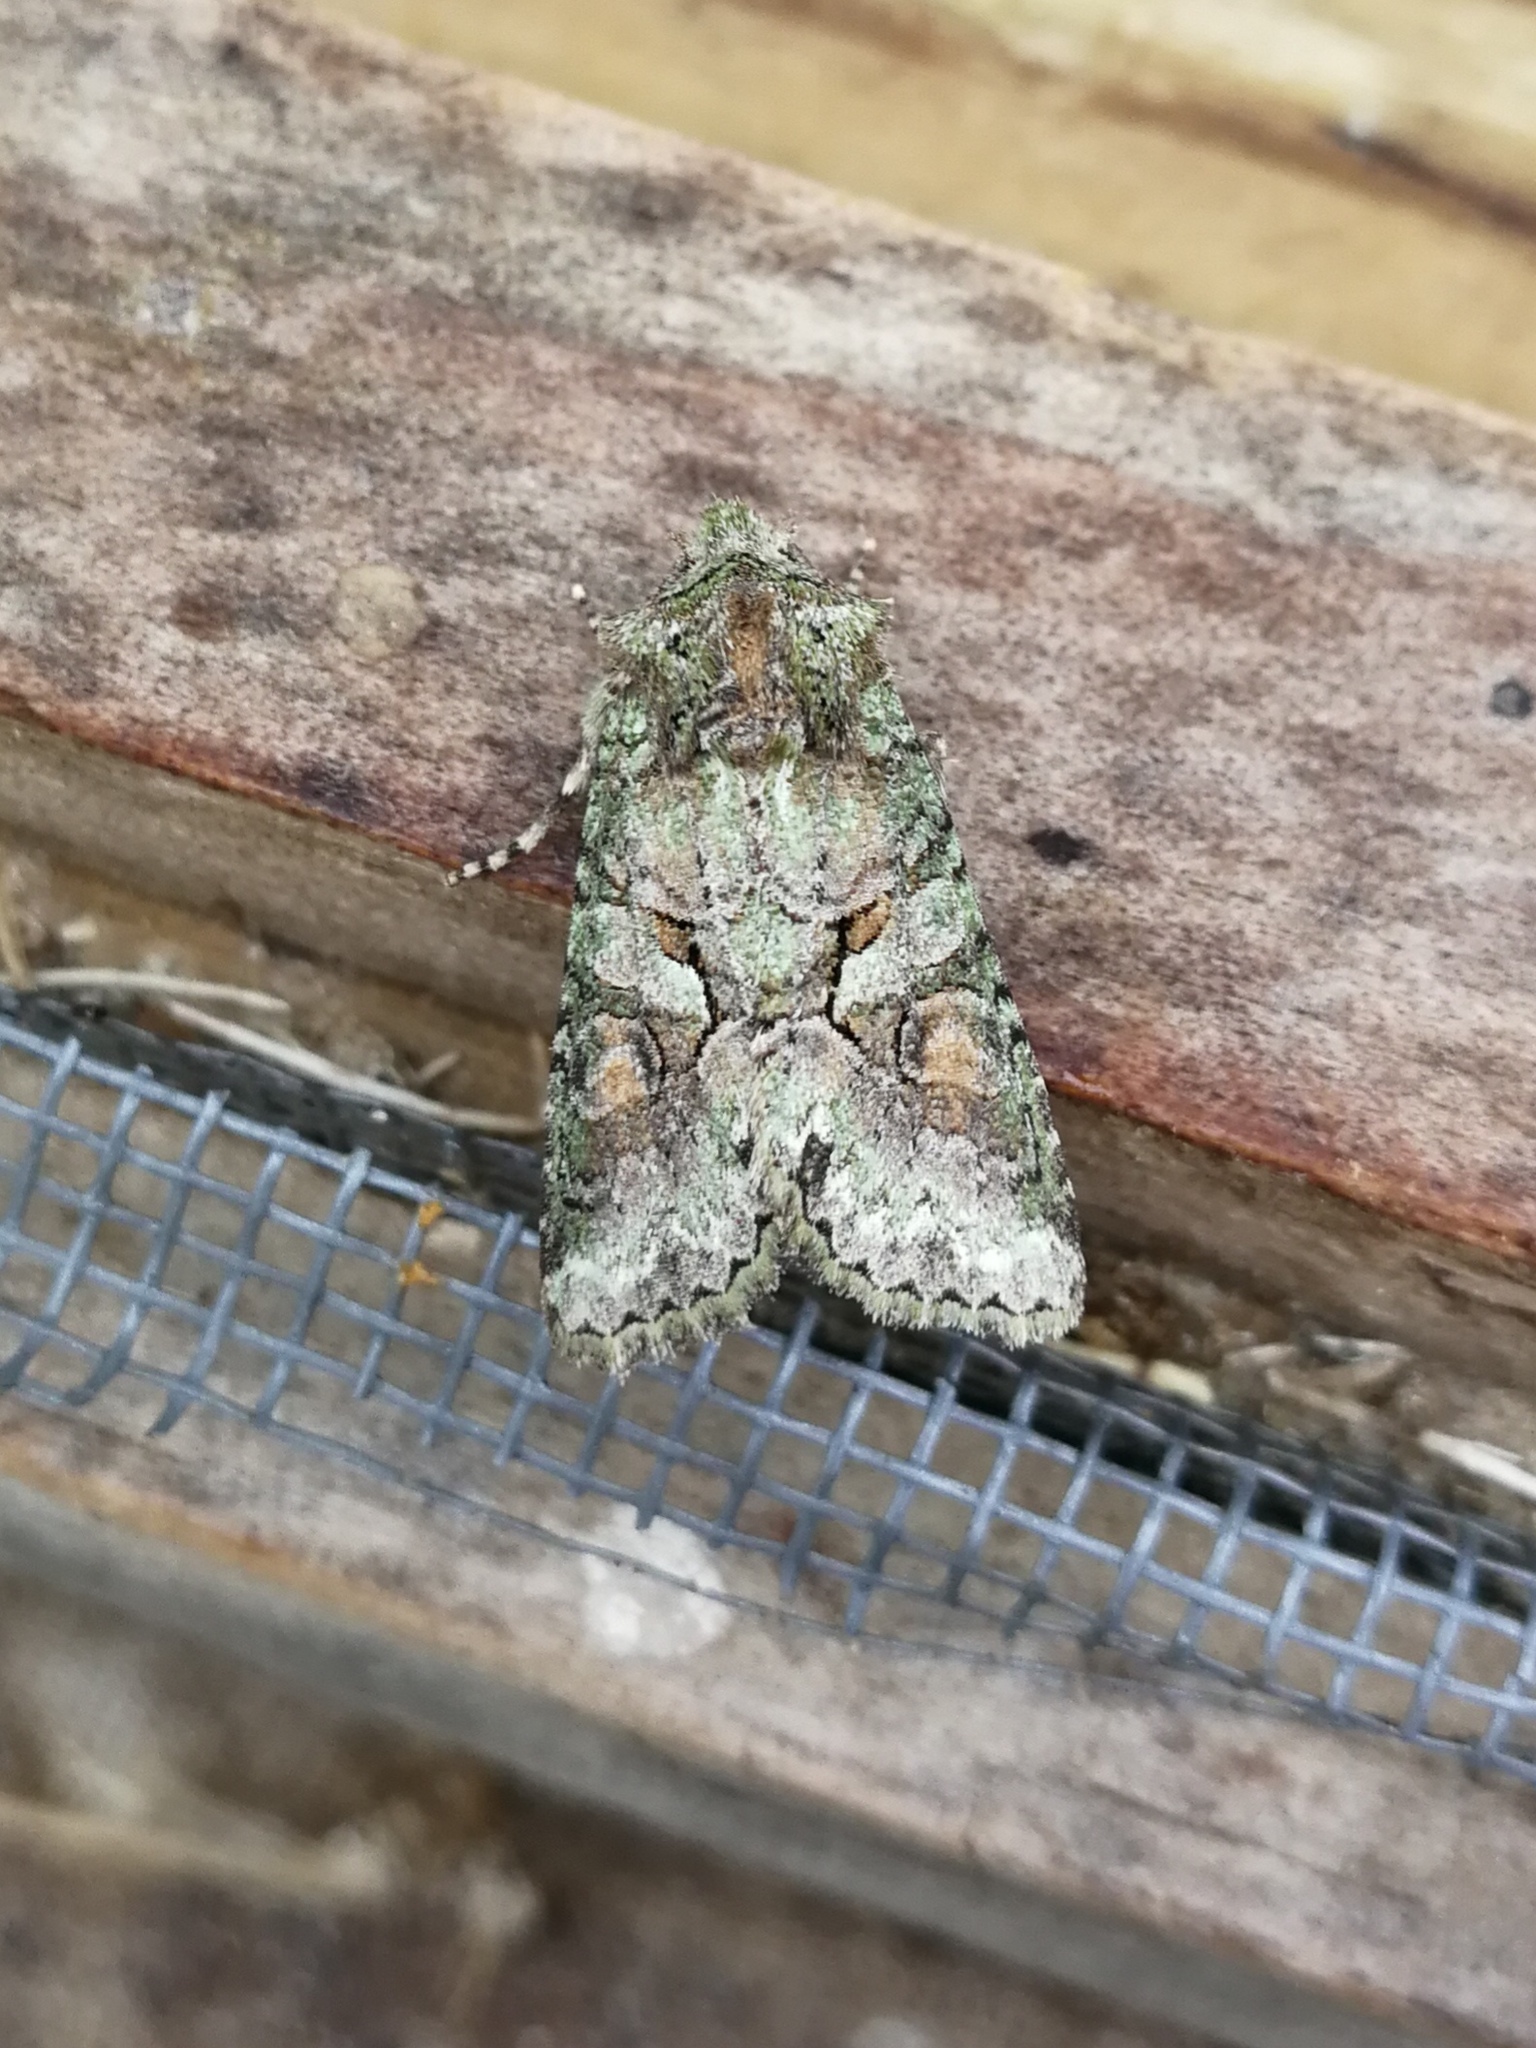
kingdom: Animalia
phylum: Arthropoda
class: Insecta
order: Lepidoptera
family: Noctuidae
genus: Dryobotodes
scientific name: Dryobotodes roboris
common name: Southern brindled green
